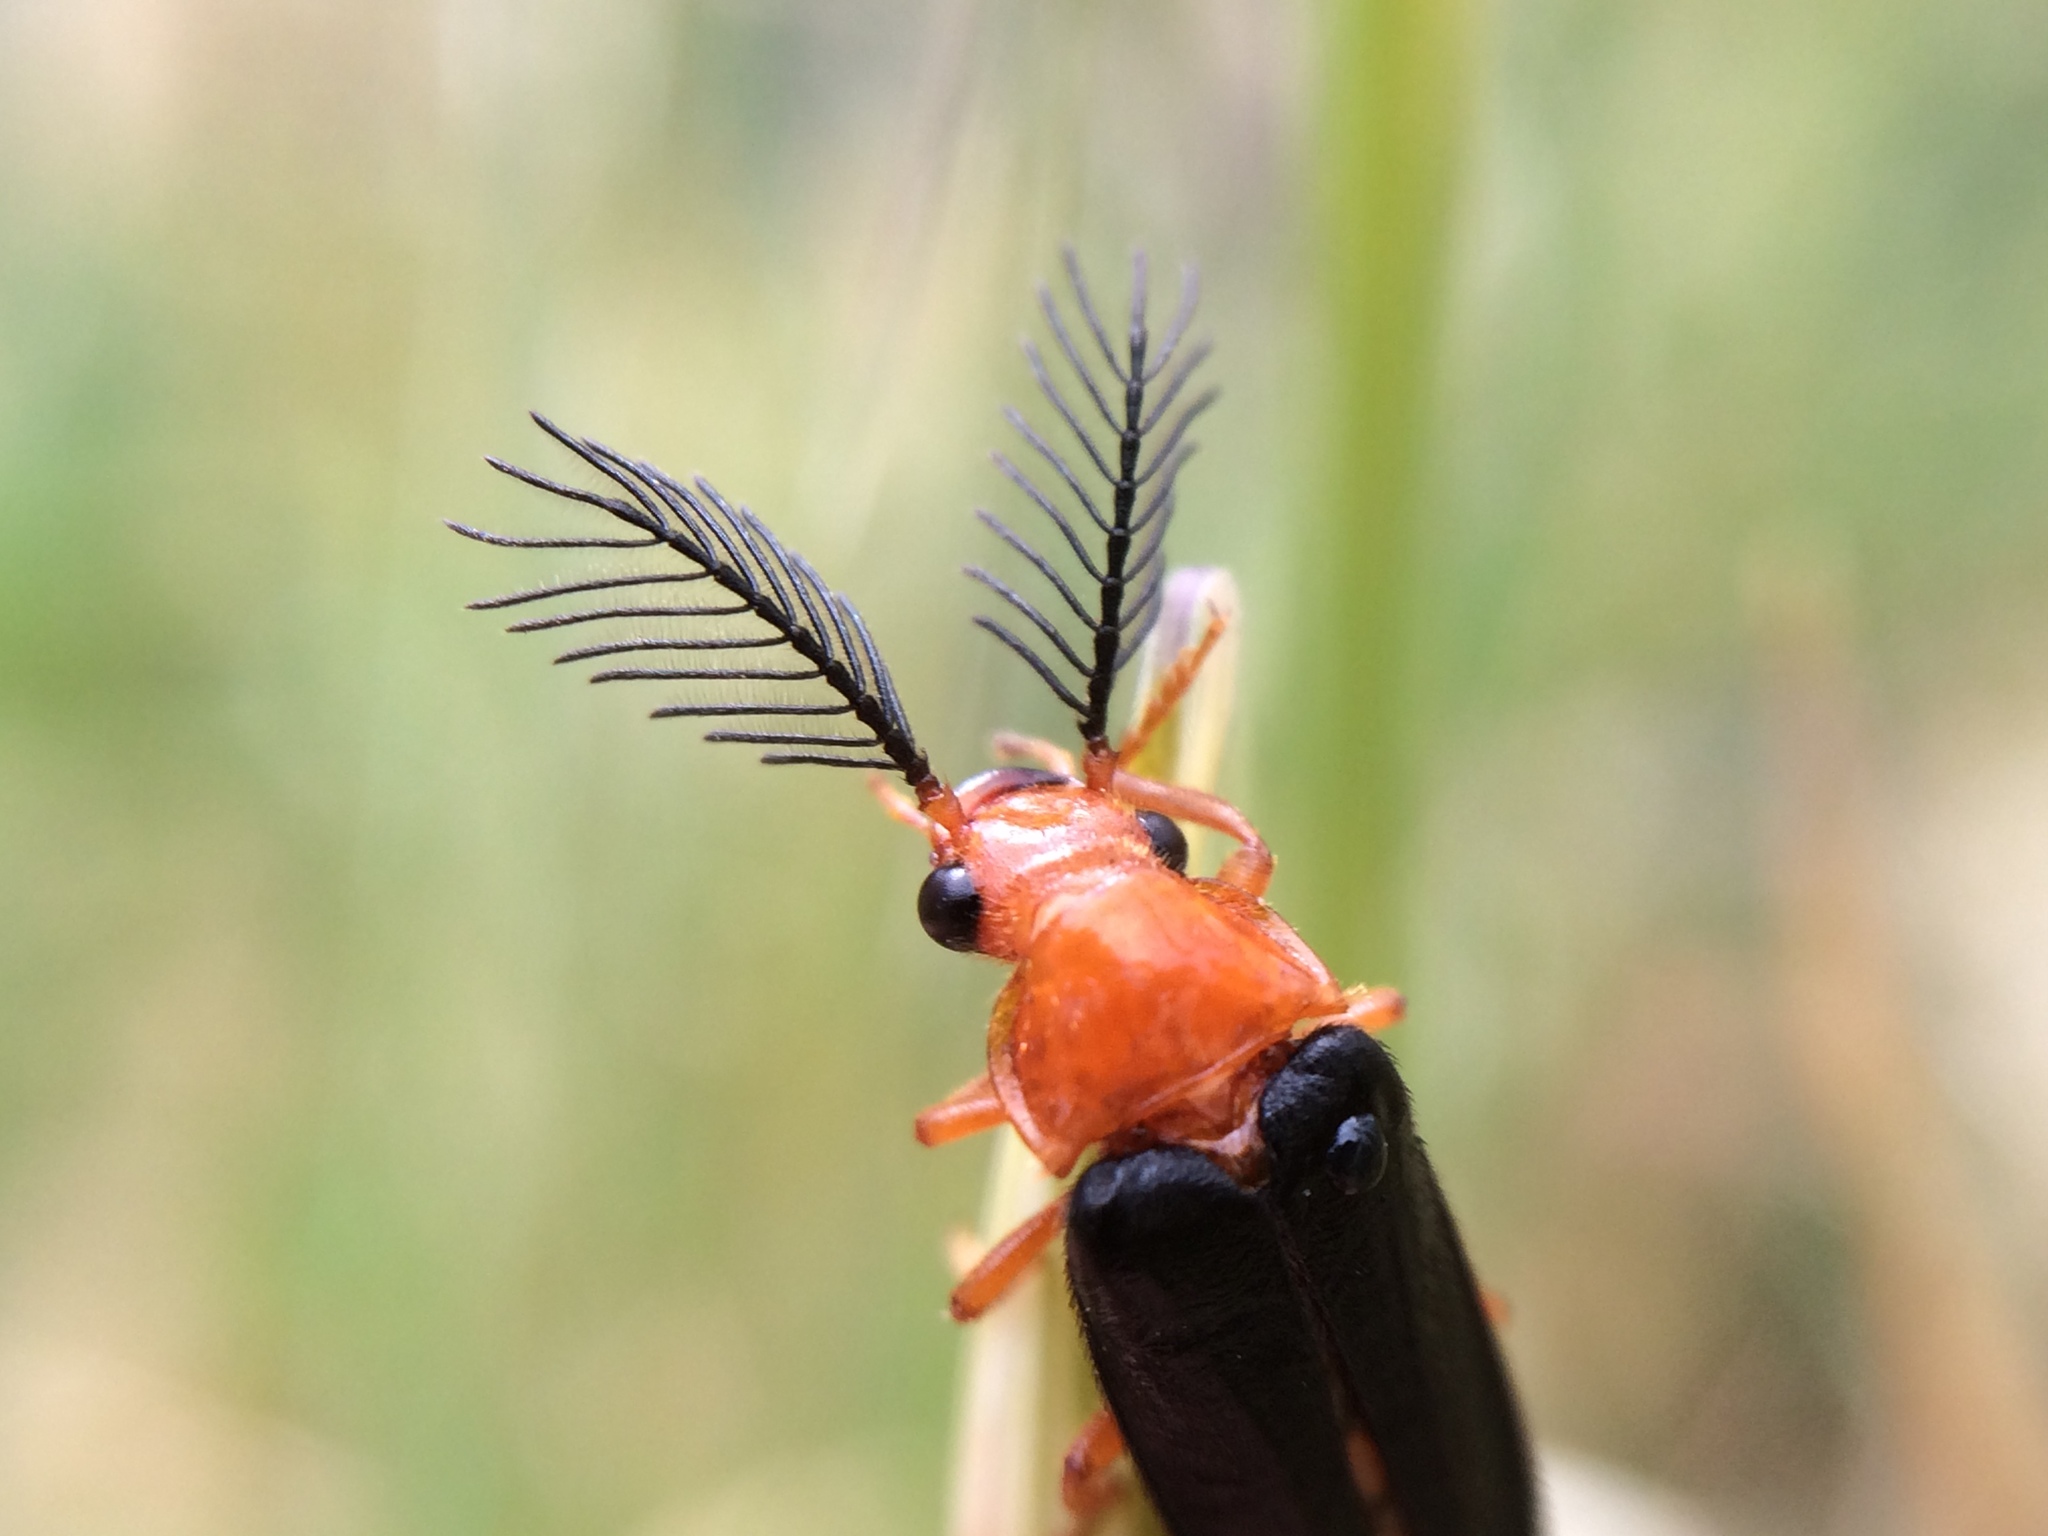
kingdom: Animalia
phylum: Arthropoda
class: Insecta
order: Coleoptera
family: Phengodidae
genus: Zarhipis
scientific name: Zarhipis integripennis
